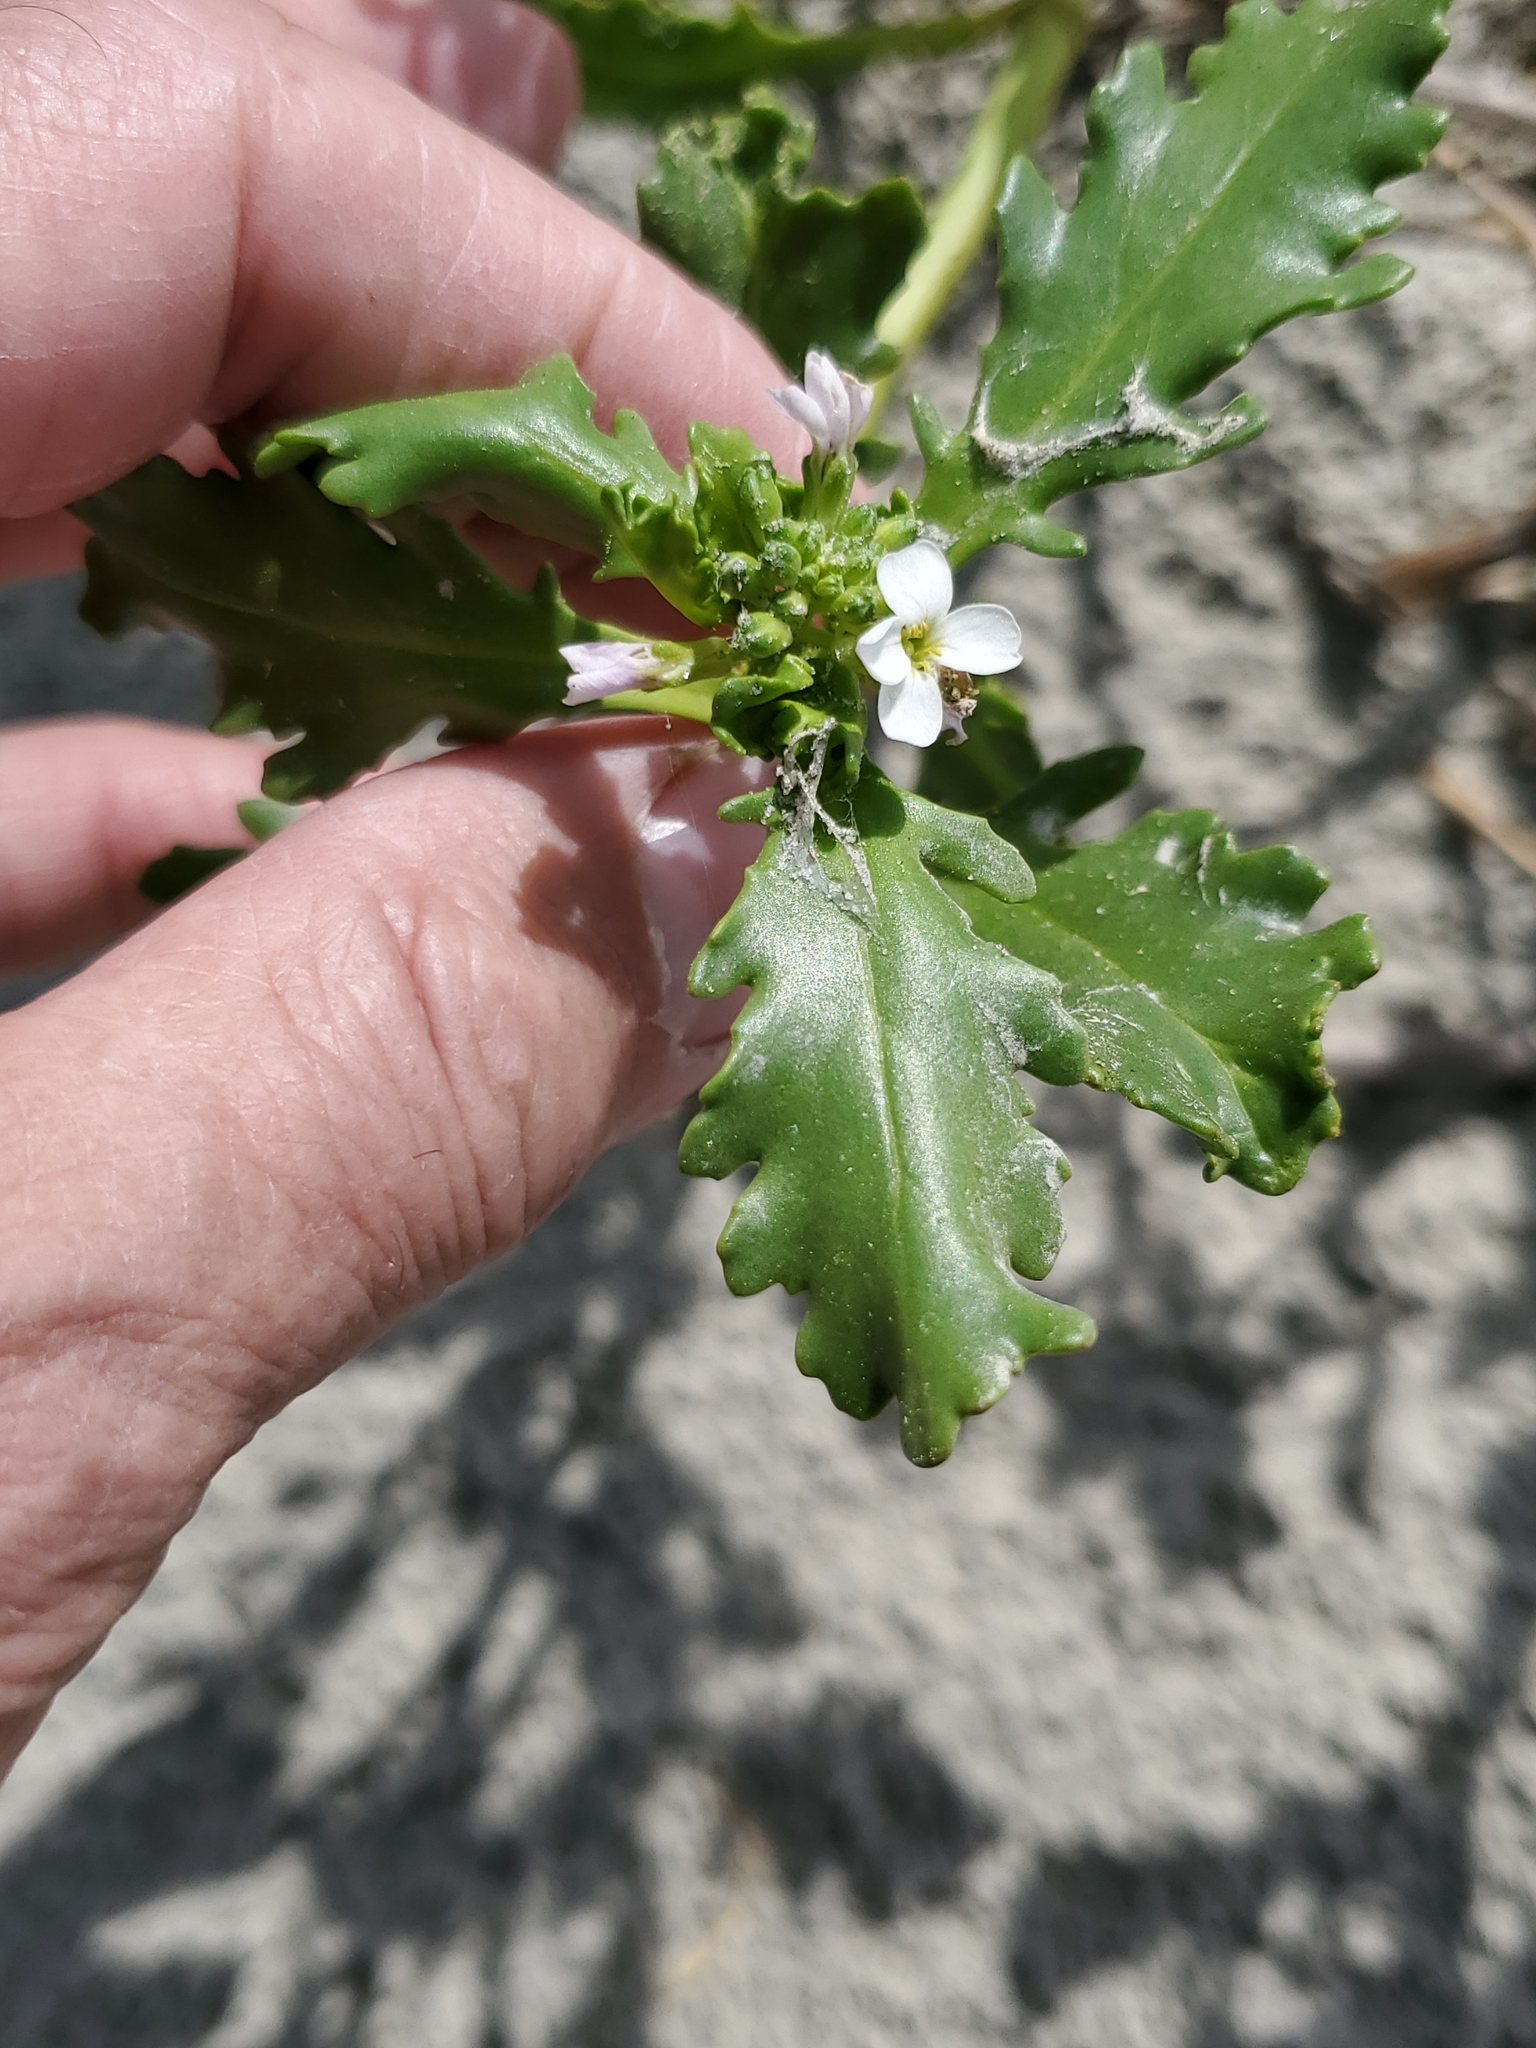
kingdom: Plantae
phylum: Tracheophyta
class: Magnoliopsida
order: Brassicales
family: Brassicaceae
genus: Cakile
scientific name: Cakile edentula
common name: American sea rocket
